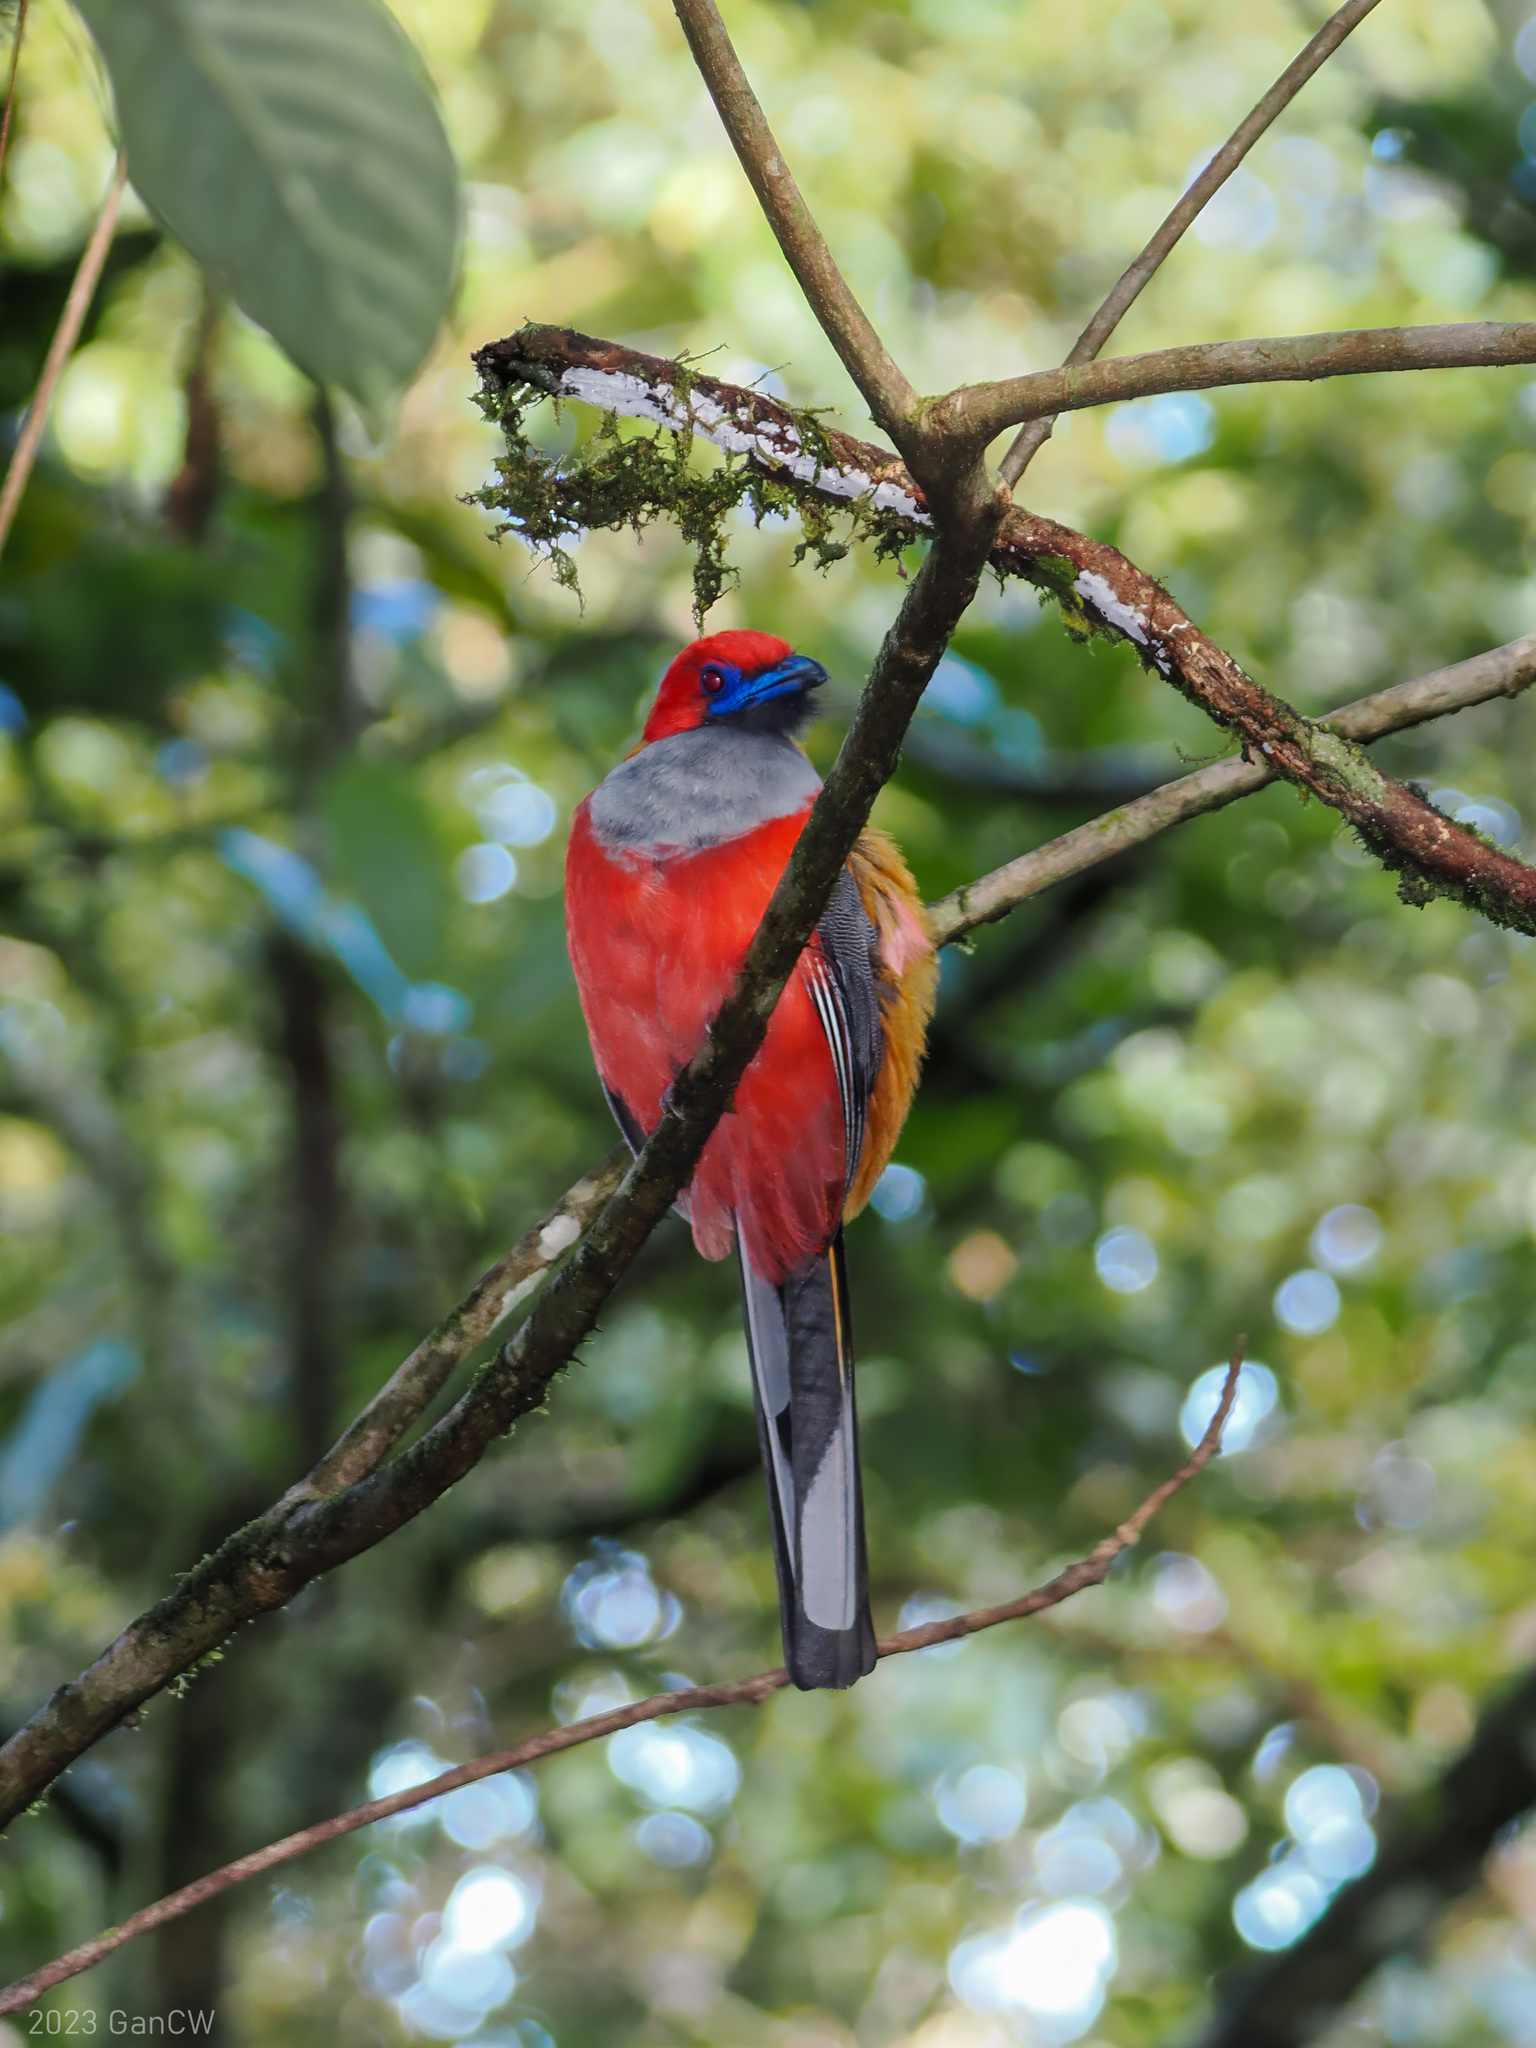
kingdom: Animalia
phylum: Chordata
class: Aves
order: Trogoniformes
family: Trogonidae
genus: Harpactes
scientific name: Harpactes whiteheadi
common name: Whitehead's trogon
